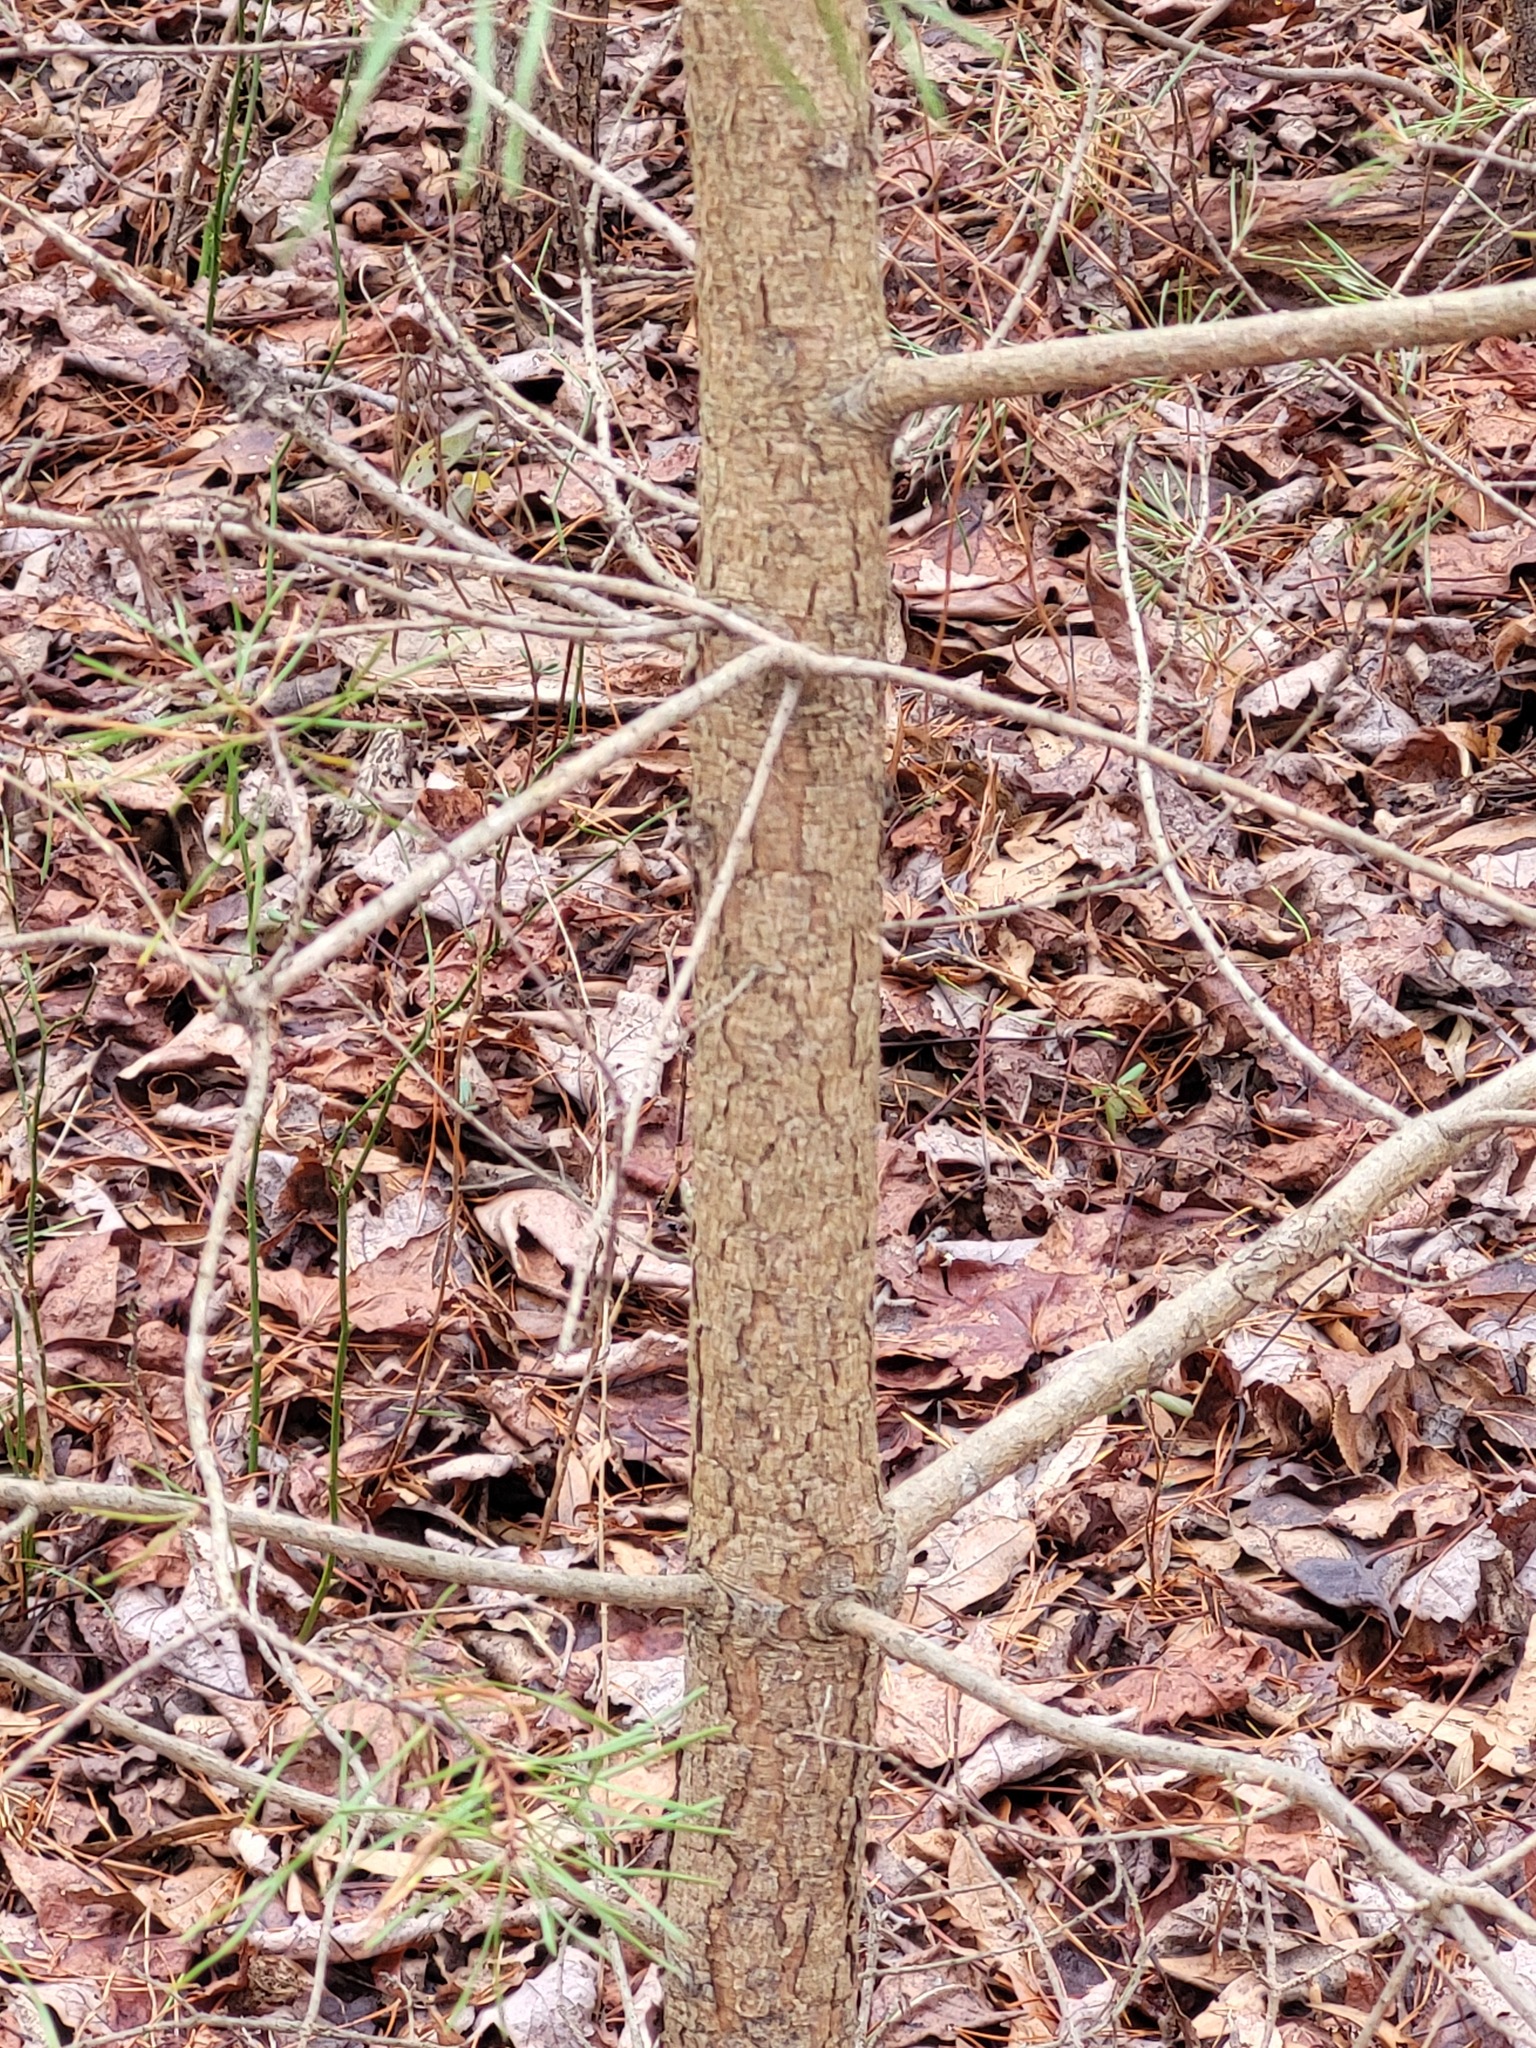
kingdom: Plantae
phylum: Tracheophyta
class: Pinopsida
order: Pinales
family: Pinaceae
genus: Pinus
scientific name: Pinus virginiana
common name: Scrub pine
